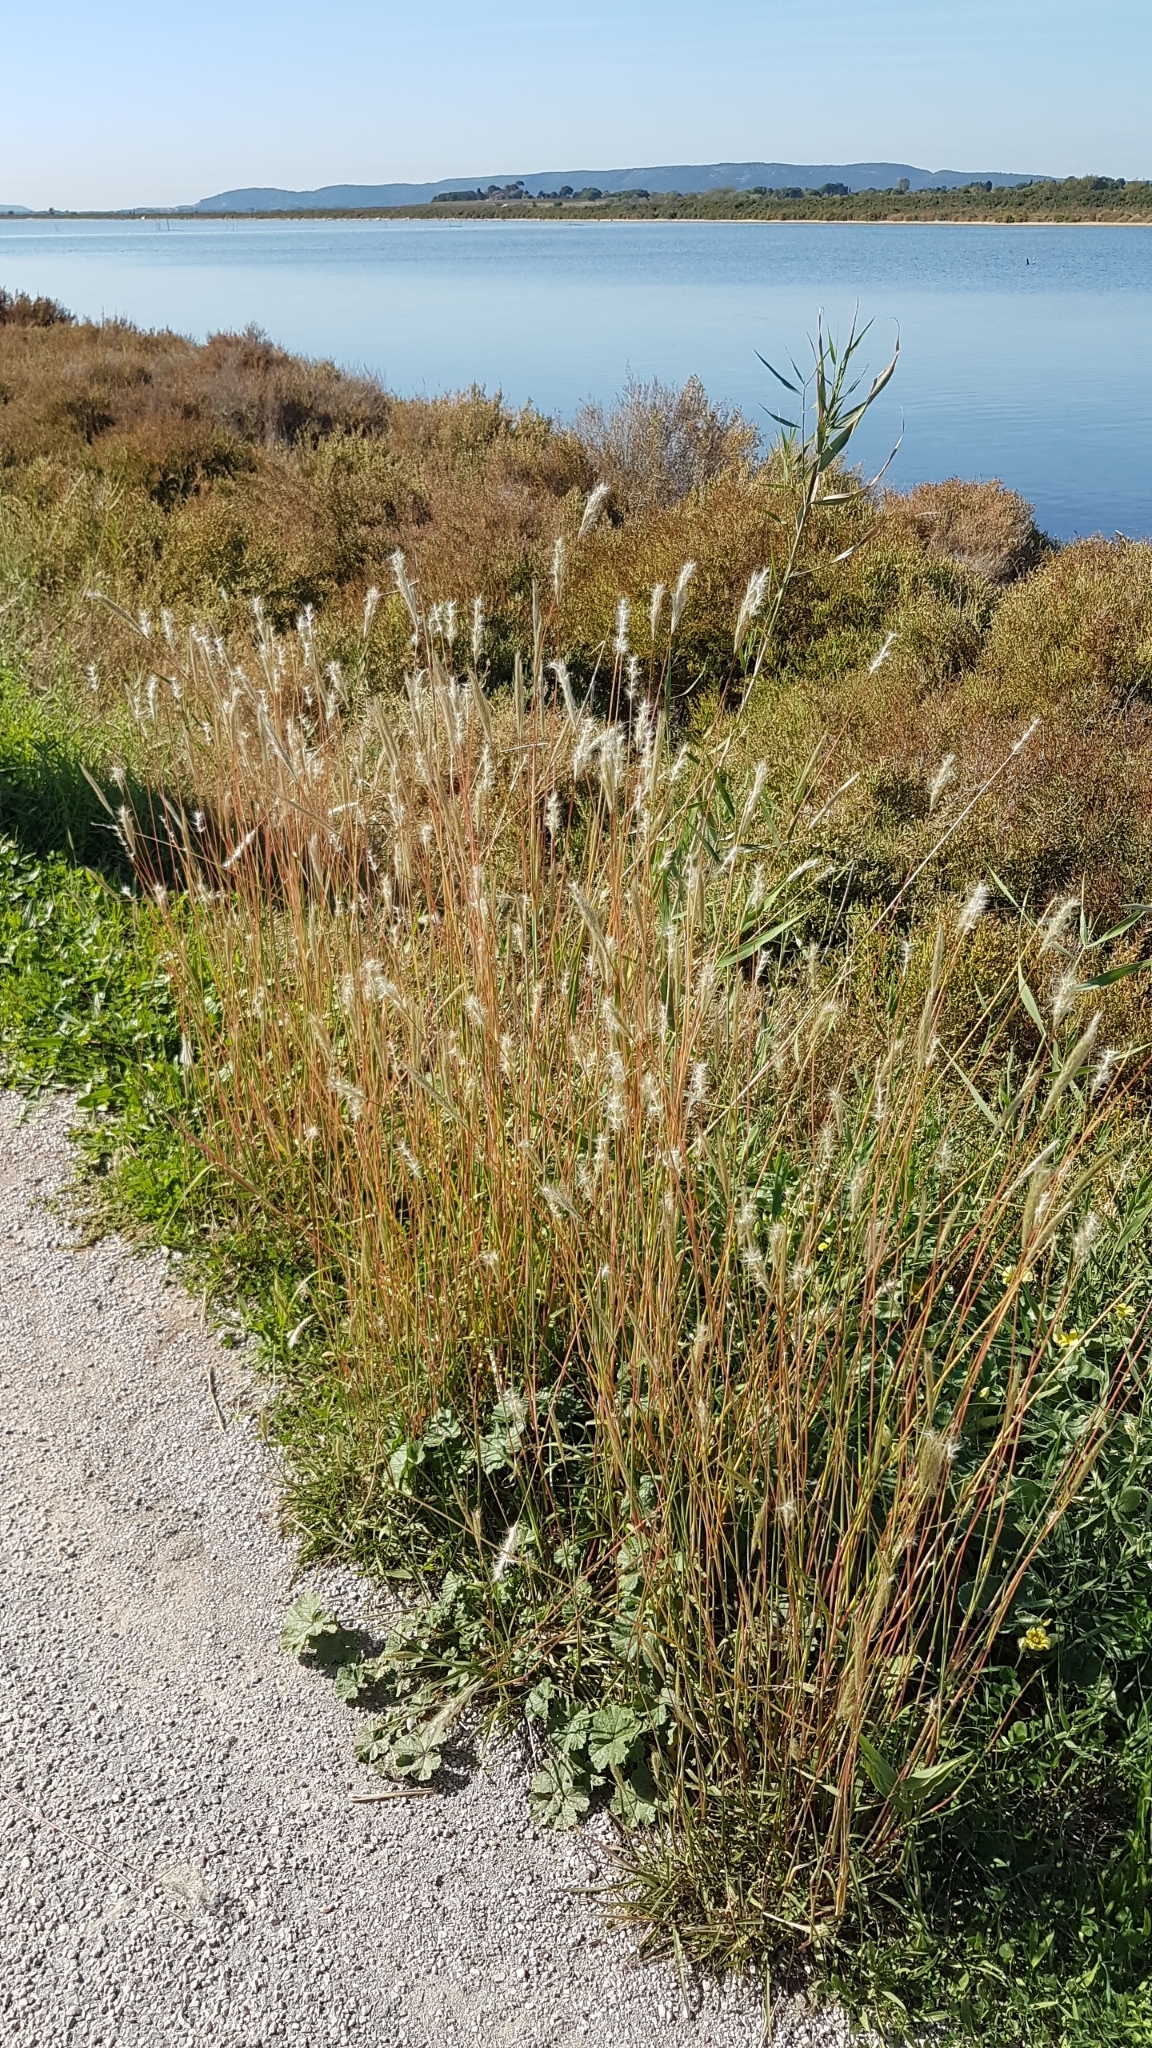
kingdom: Plantae
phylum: Tracheophyta
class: Liliopsida
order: Poales
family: Poaceae
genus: Bothriochloa
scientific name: Bothriochloa barbinodis
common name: Cane bluestem
